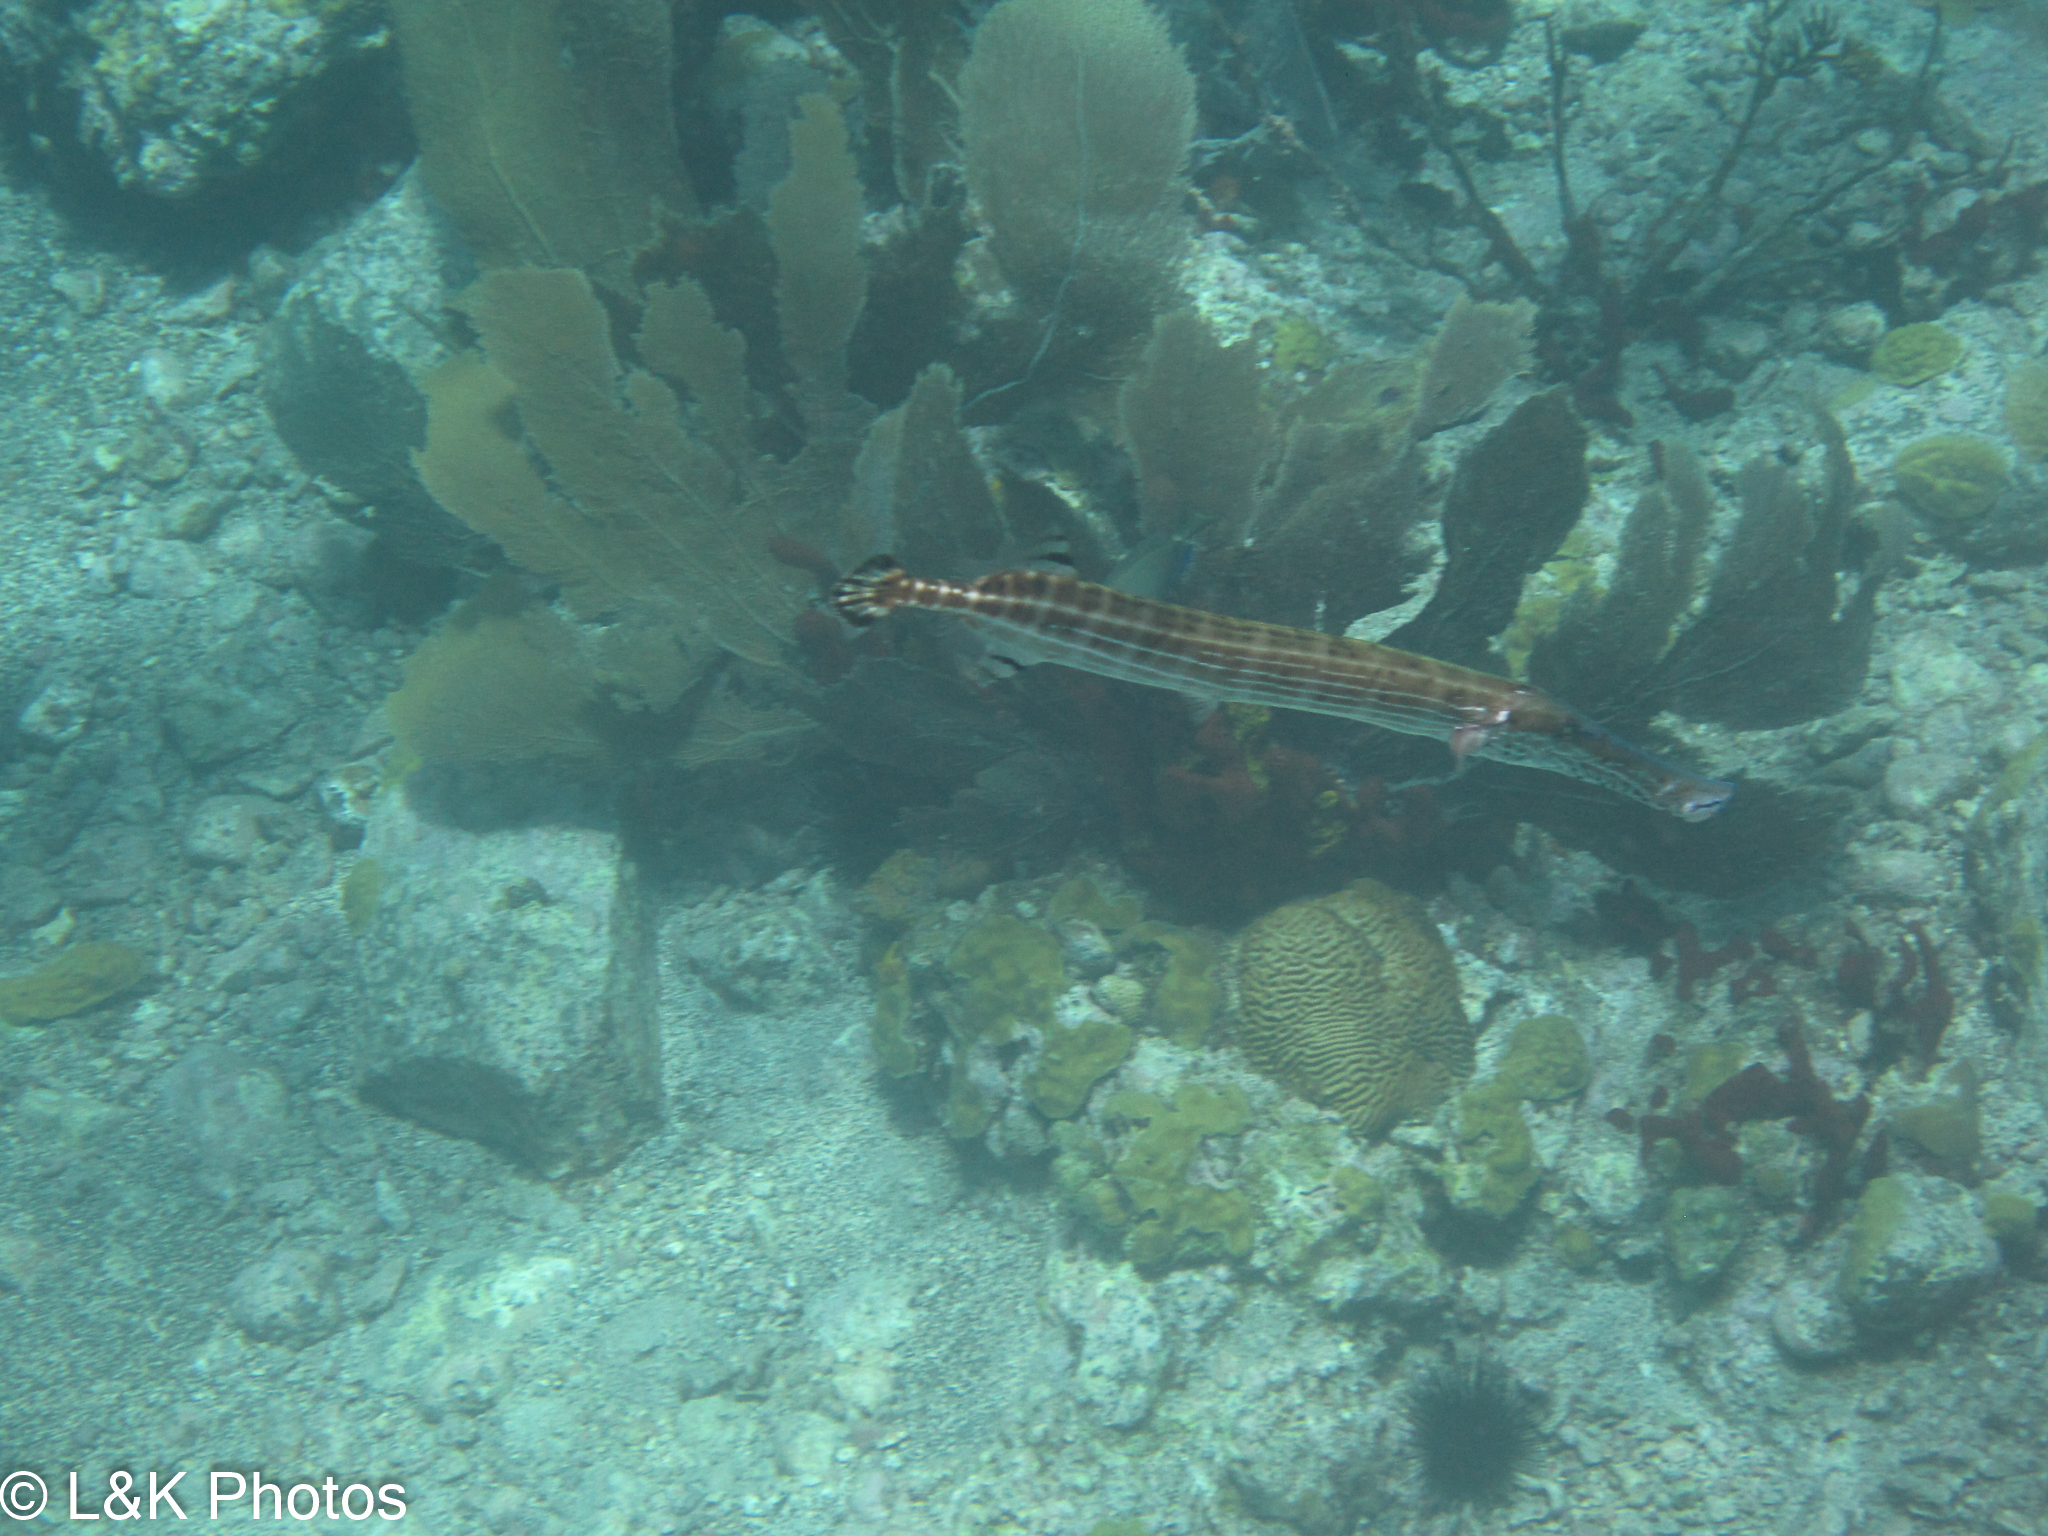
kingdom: Animalia
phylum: Chordata
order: Syngnathiformes
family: Aulostomidae
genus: Aulostomus
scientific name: Aulostomus maculatus
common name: West atlantic trumpetfish
